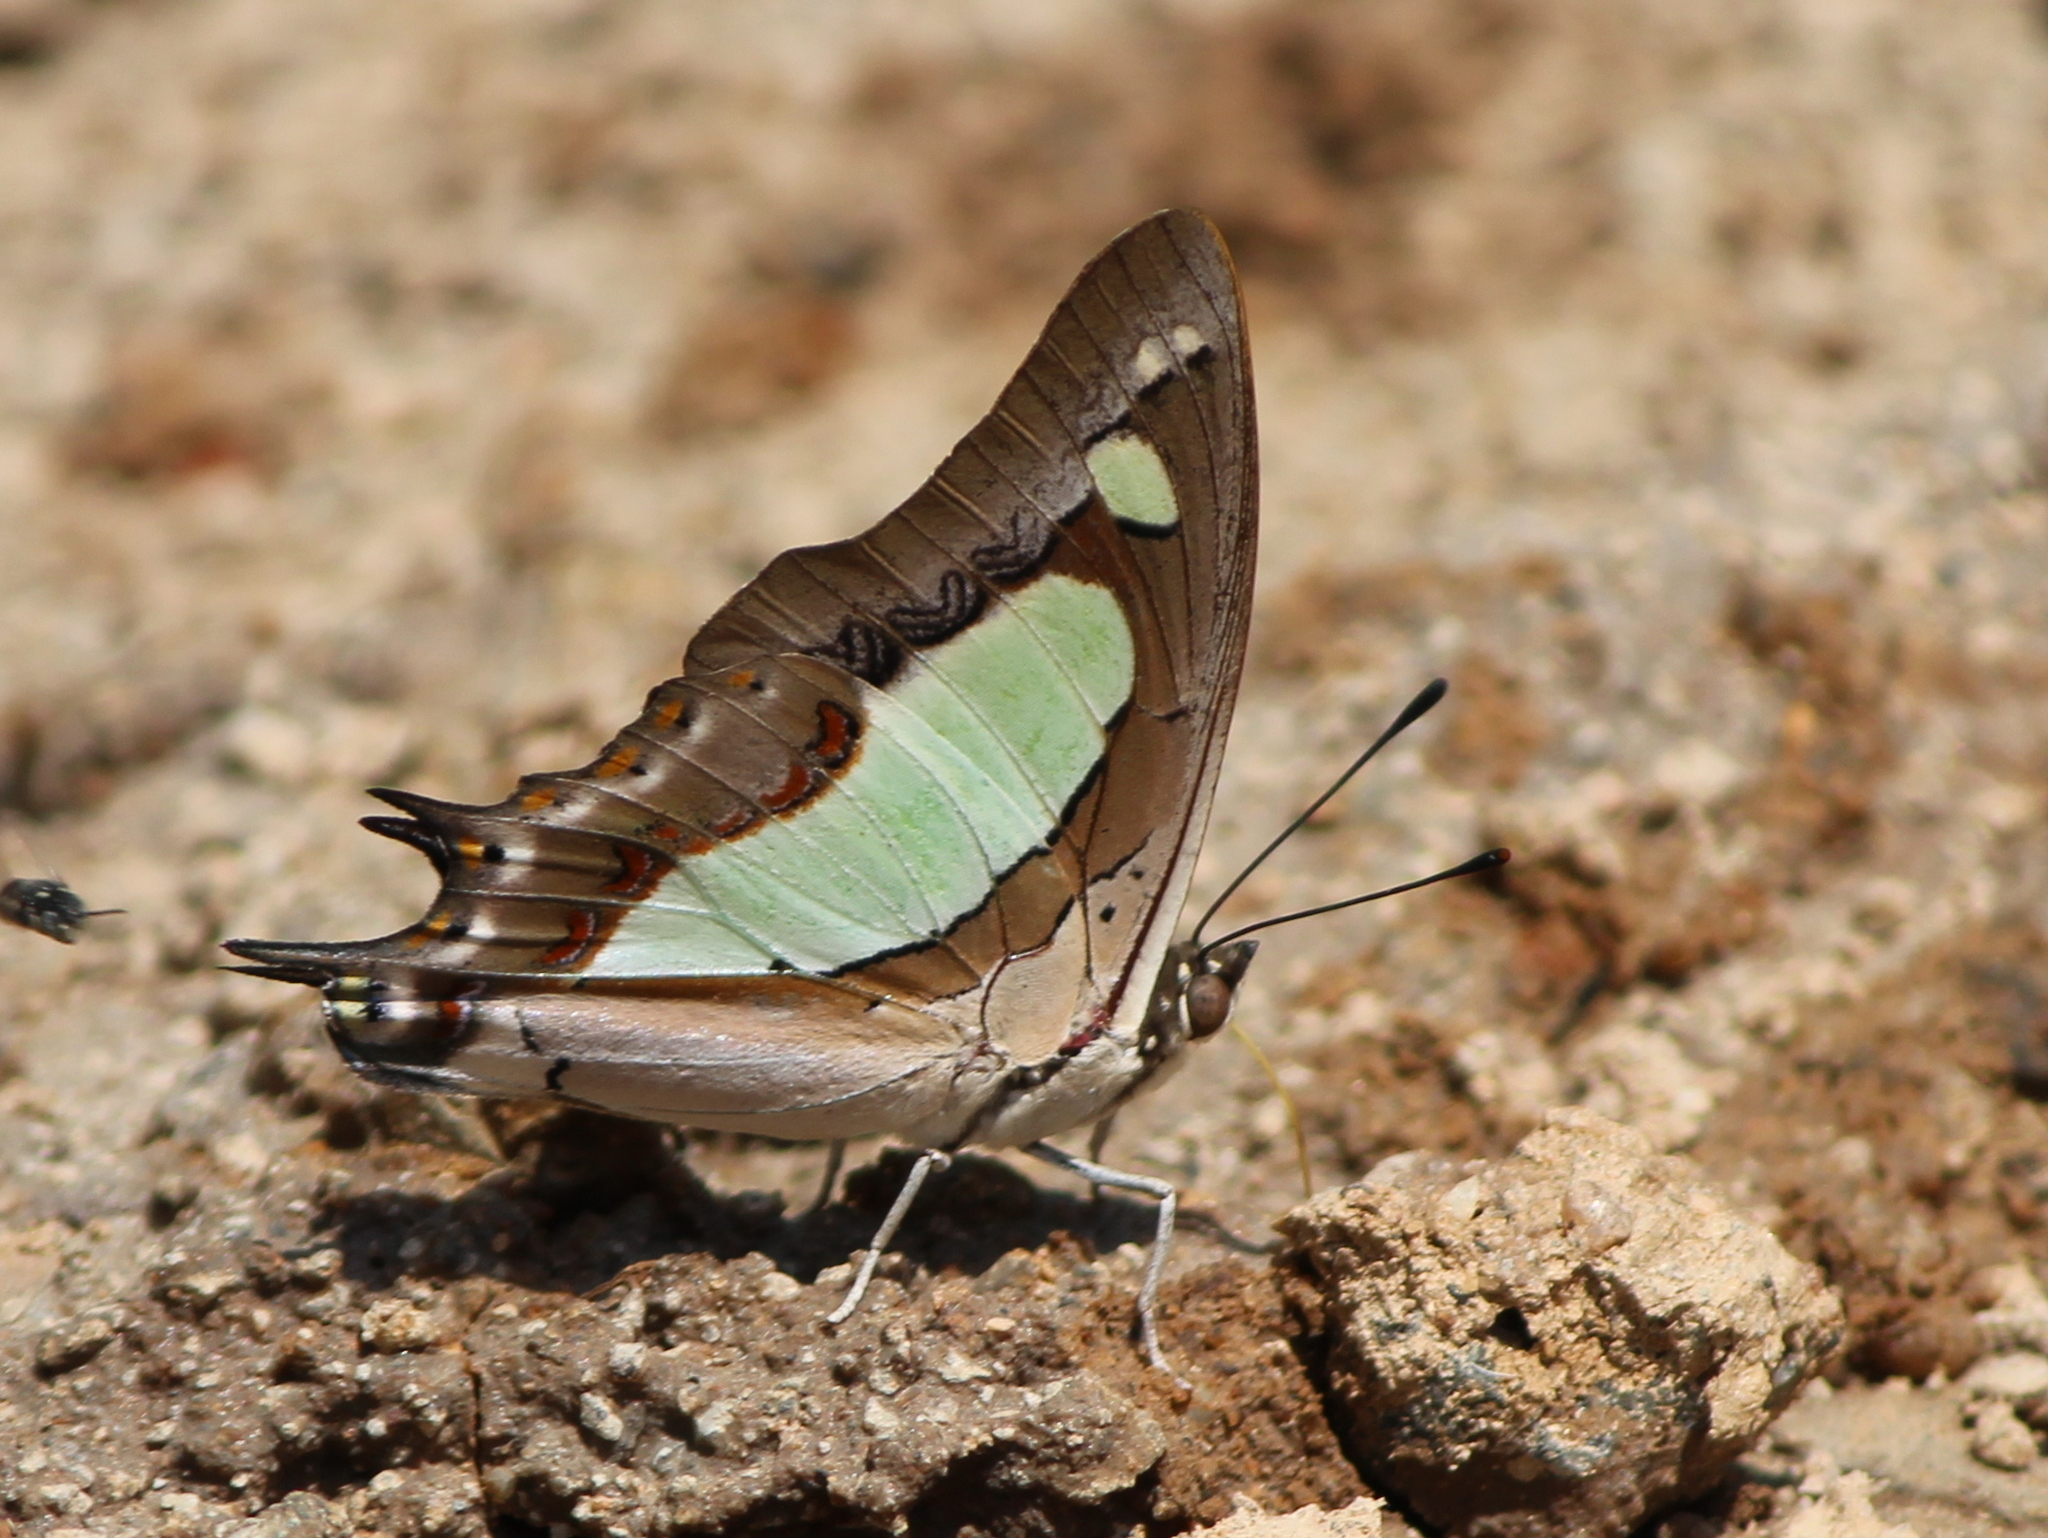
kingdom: Animalia
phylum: Arthropoda
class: Insecta
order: Lepidoptera
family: Nymphalidae
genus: Polyura
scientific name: Polyura agrarius
